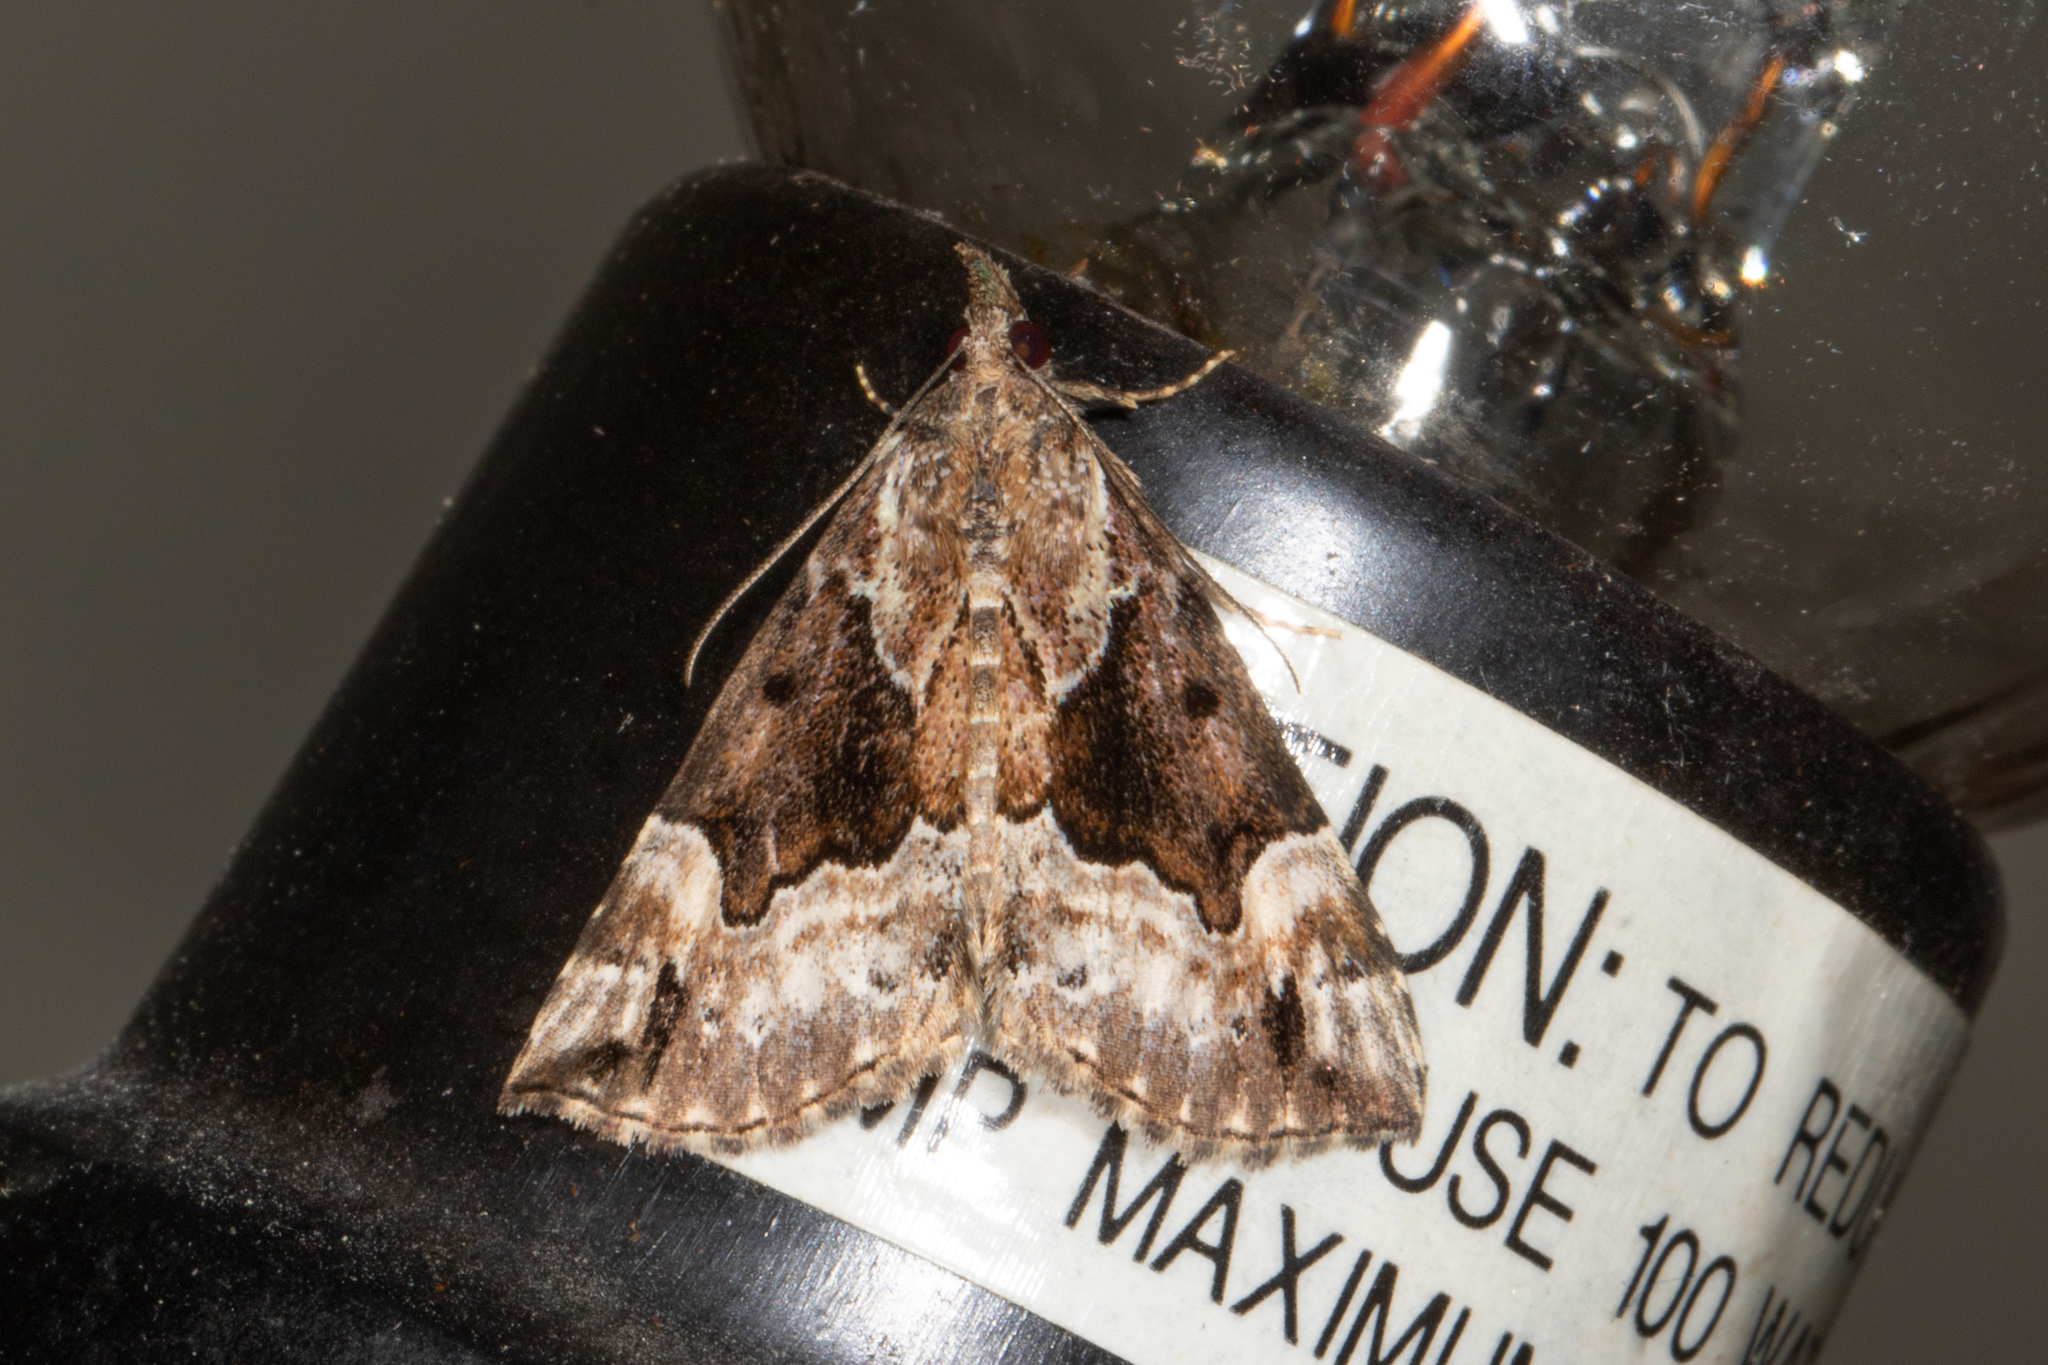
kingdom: Animalia
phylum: Arthropoda
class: Insecta
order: Lepidoptera
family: Erebidae
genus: Hypena
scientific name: Hypena palparia
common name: Mottled bomolocha moth
